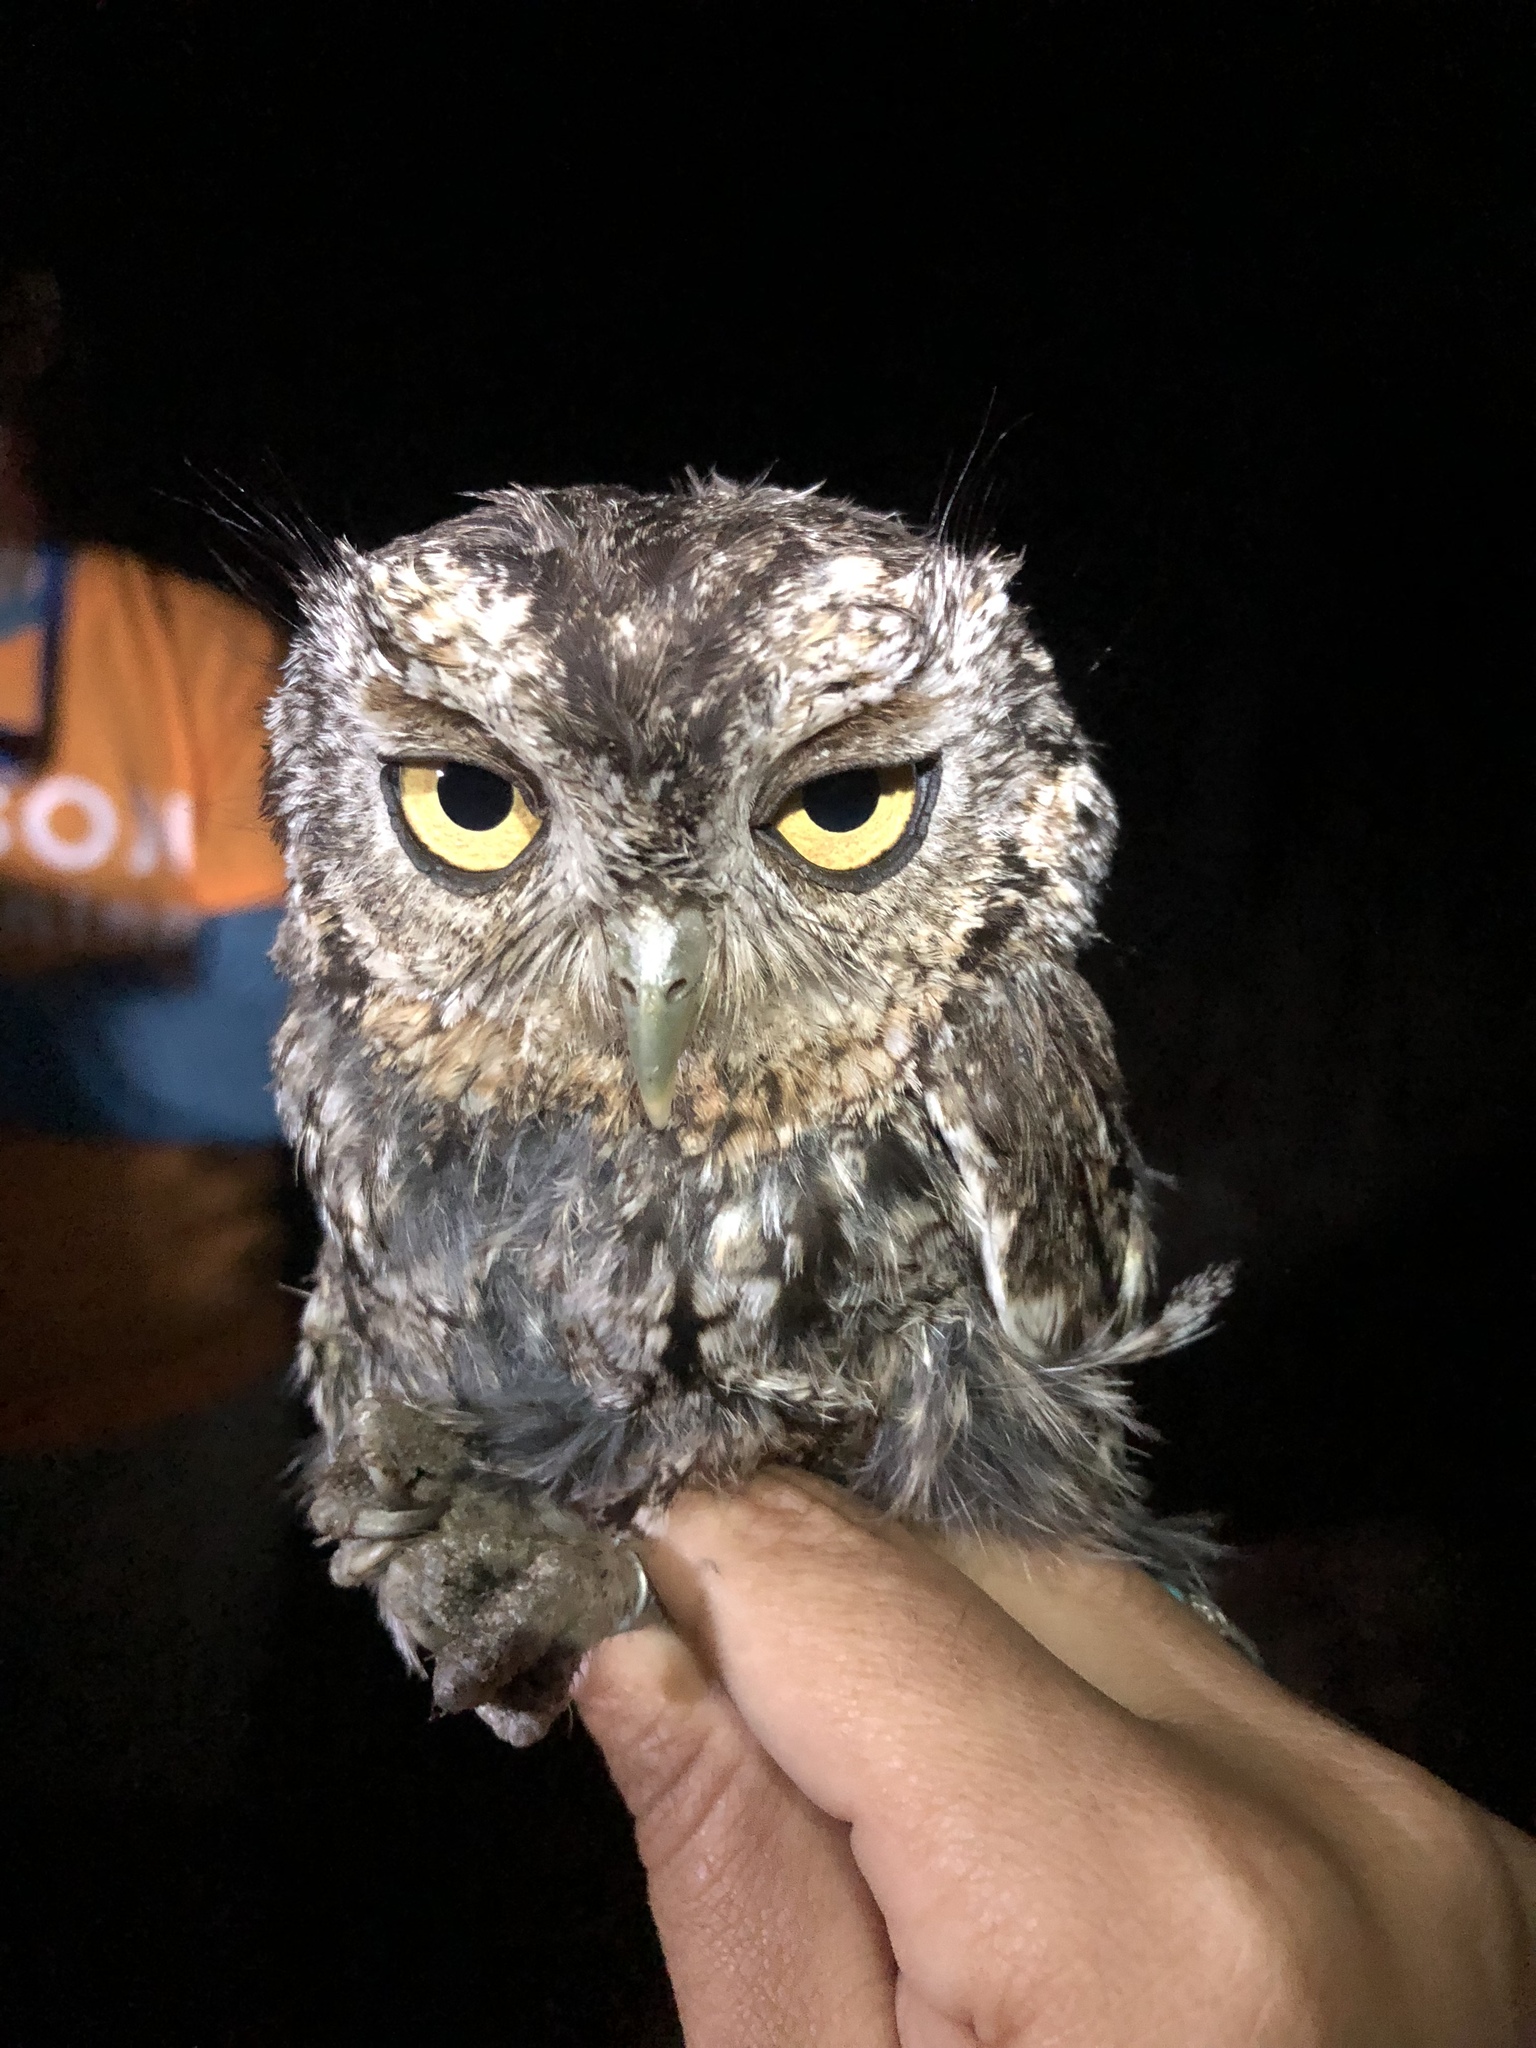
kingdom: Animalia
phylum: Chordata
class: Aves
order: Strigiformes
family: Strigidae
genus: Megascops
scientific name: Megascops trichopsis
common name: Whiskered screech-owl
